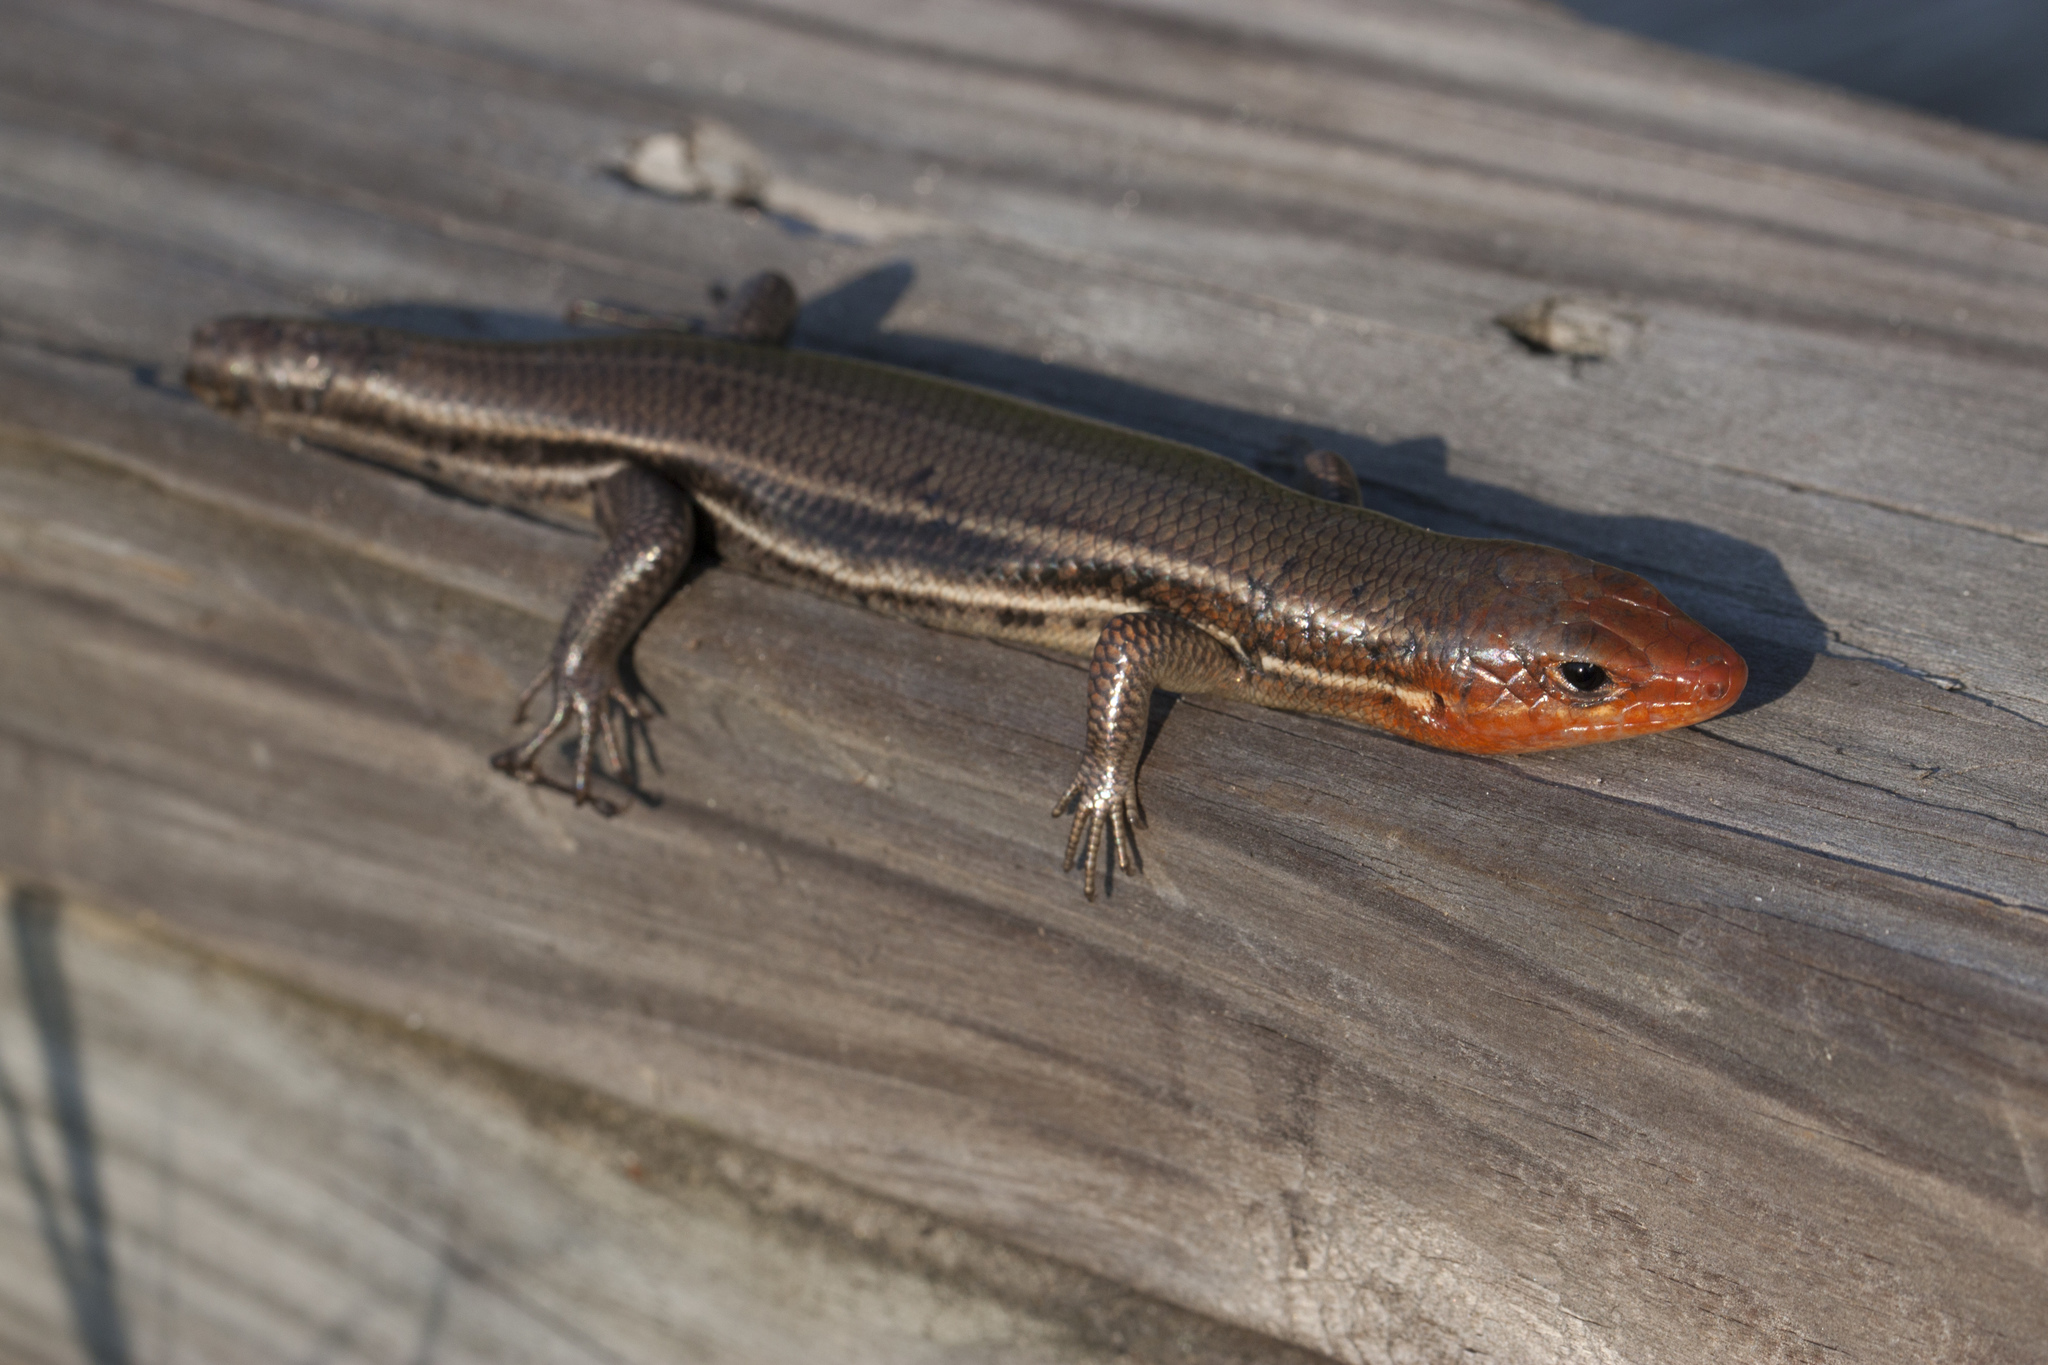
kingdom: Animalia
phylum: Chordata
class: Squamata
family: Scincidae
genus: Plestiodon
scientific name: Plestiodon inexpectatus
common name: Southeastern five-lined skink
